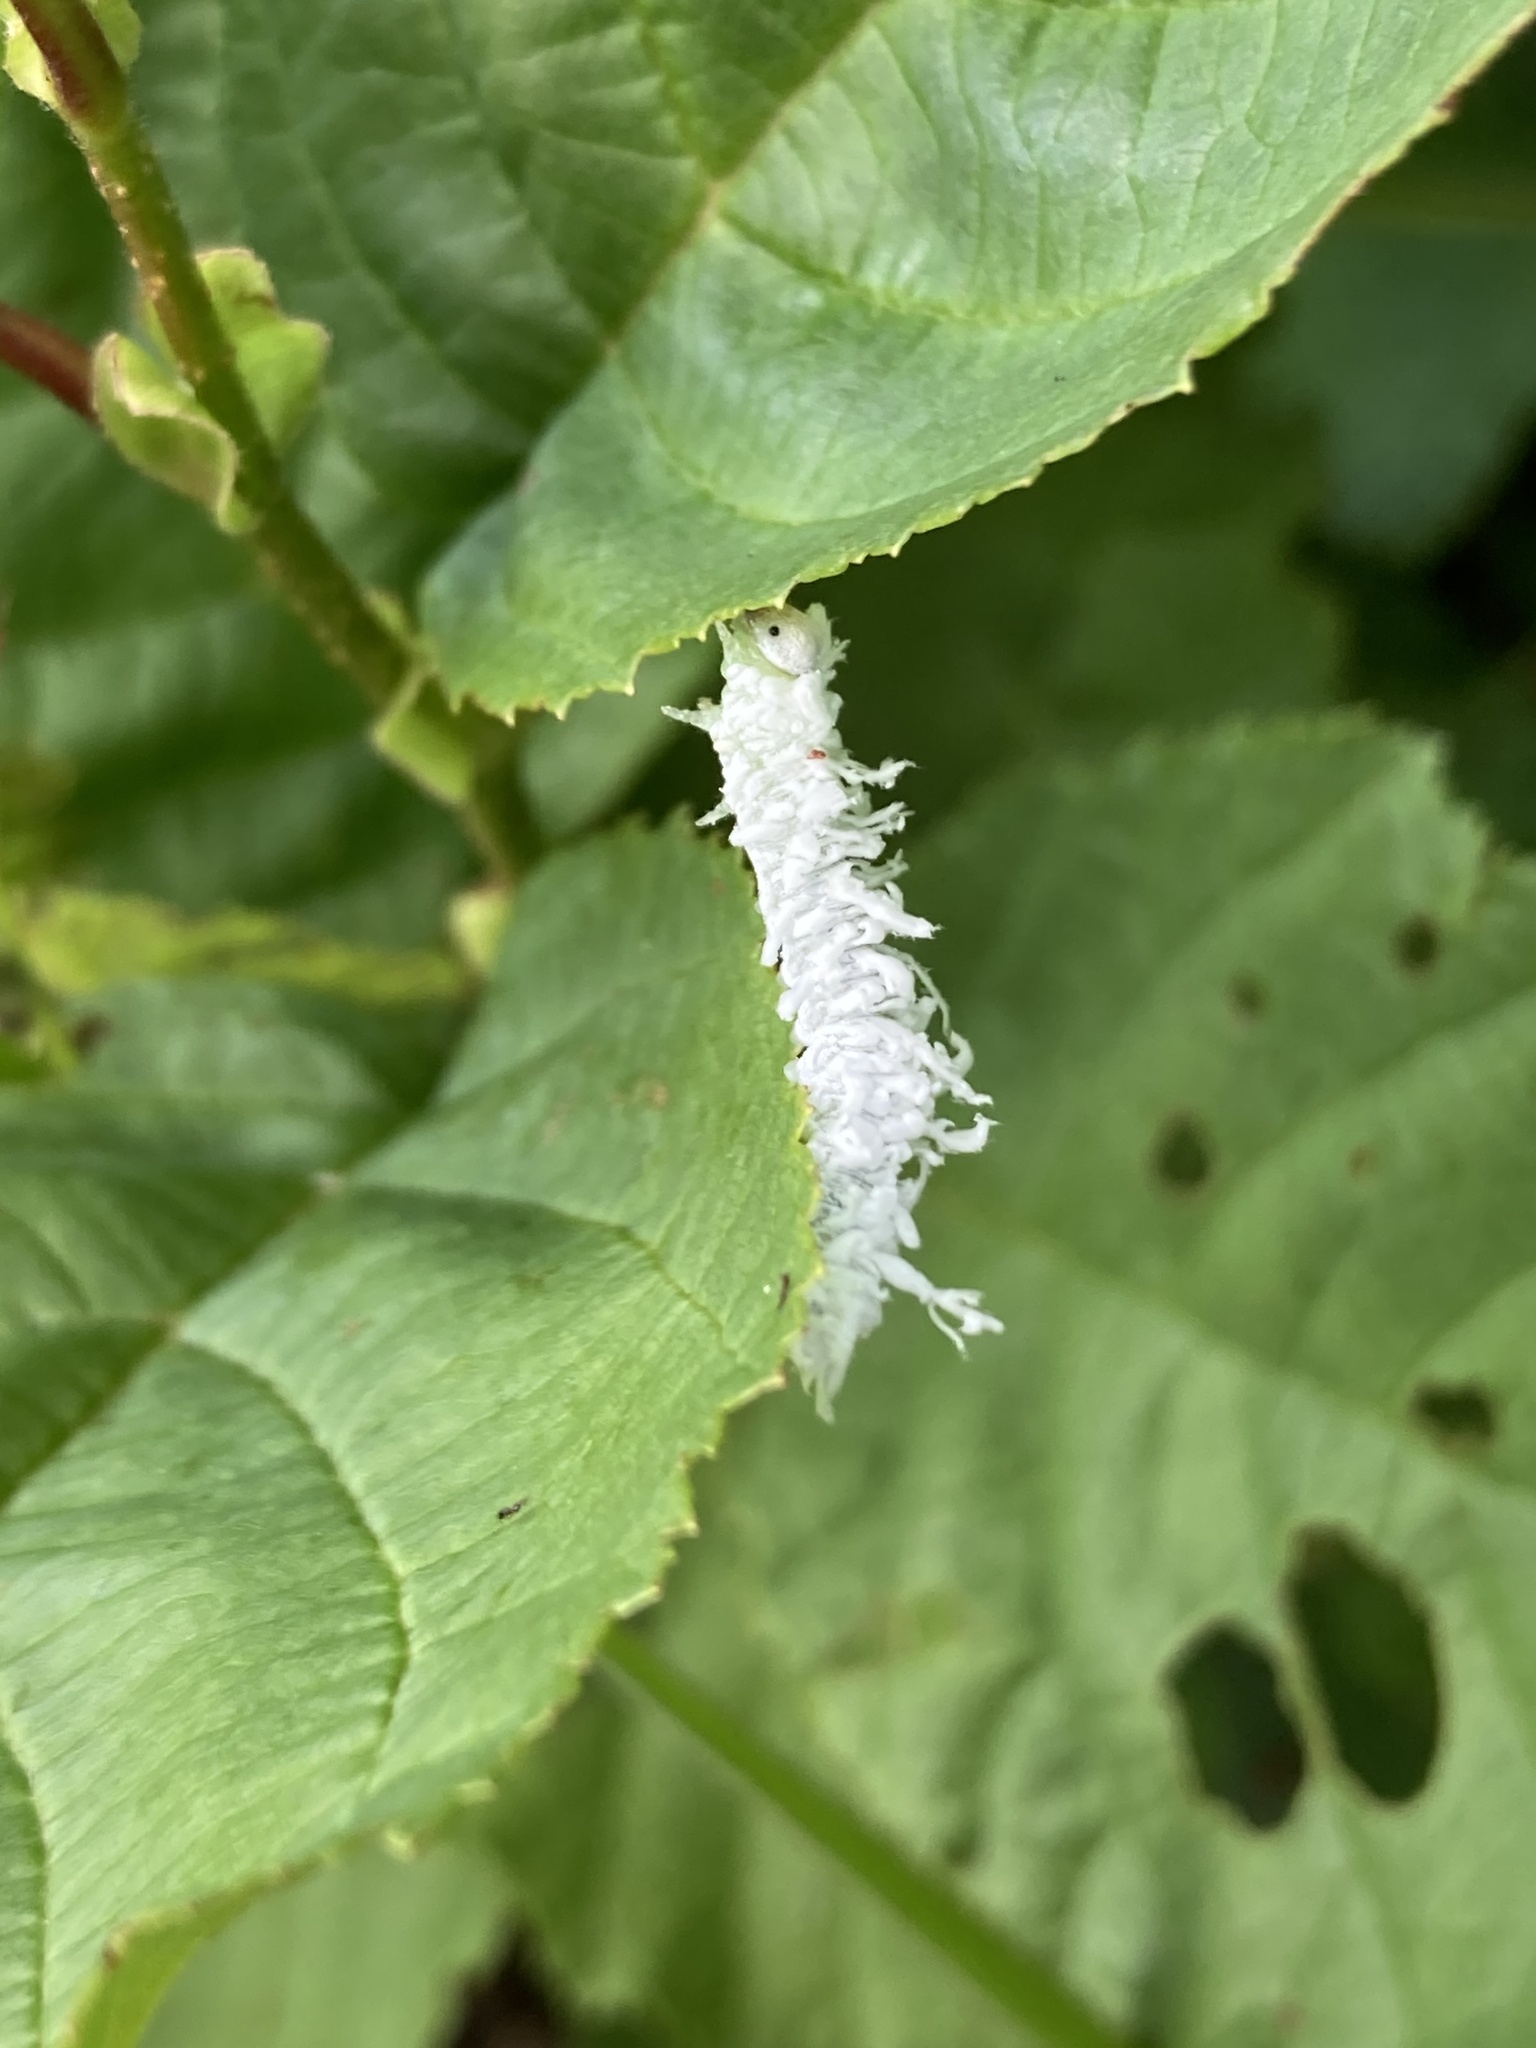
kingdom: Animalia
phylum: Arthropoda
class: Insecta
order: Hymenoptera
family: Tenthredinidae
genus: Eriocampa
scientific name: Eriocampa ovata
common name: Alder wooly sawfly
